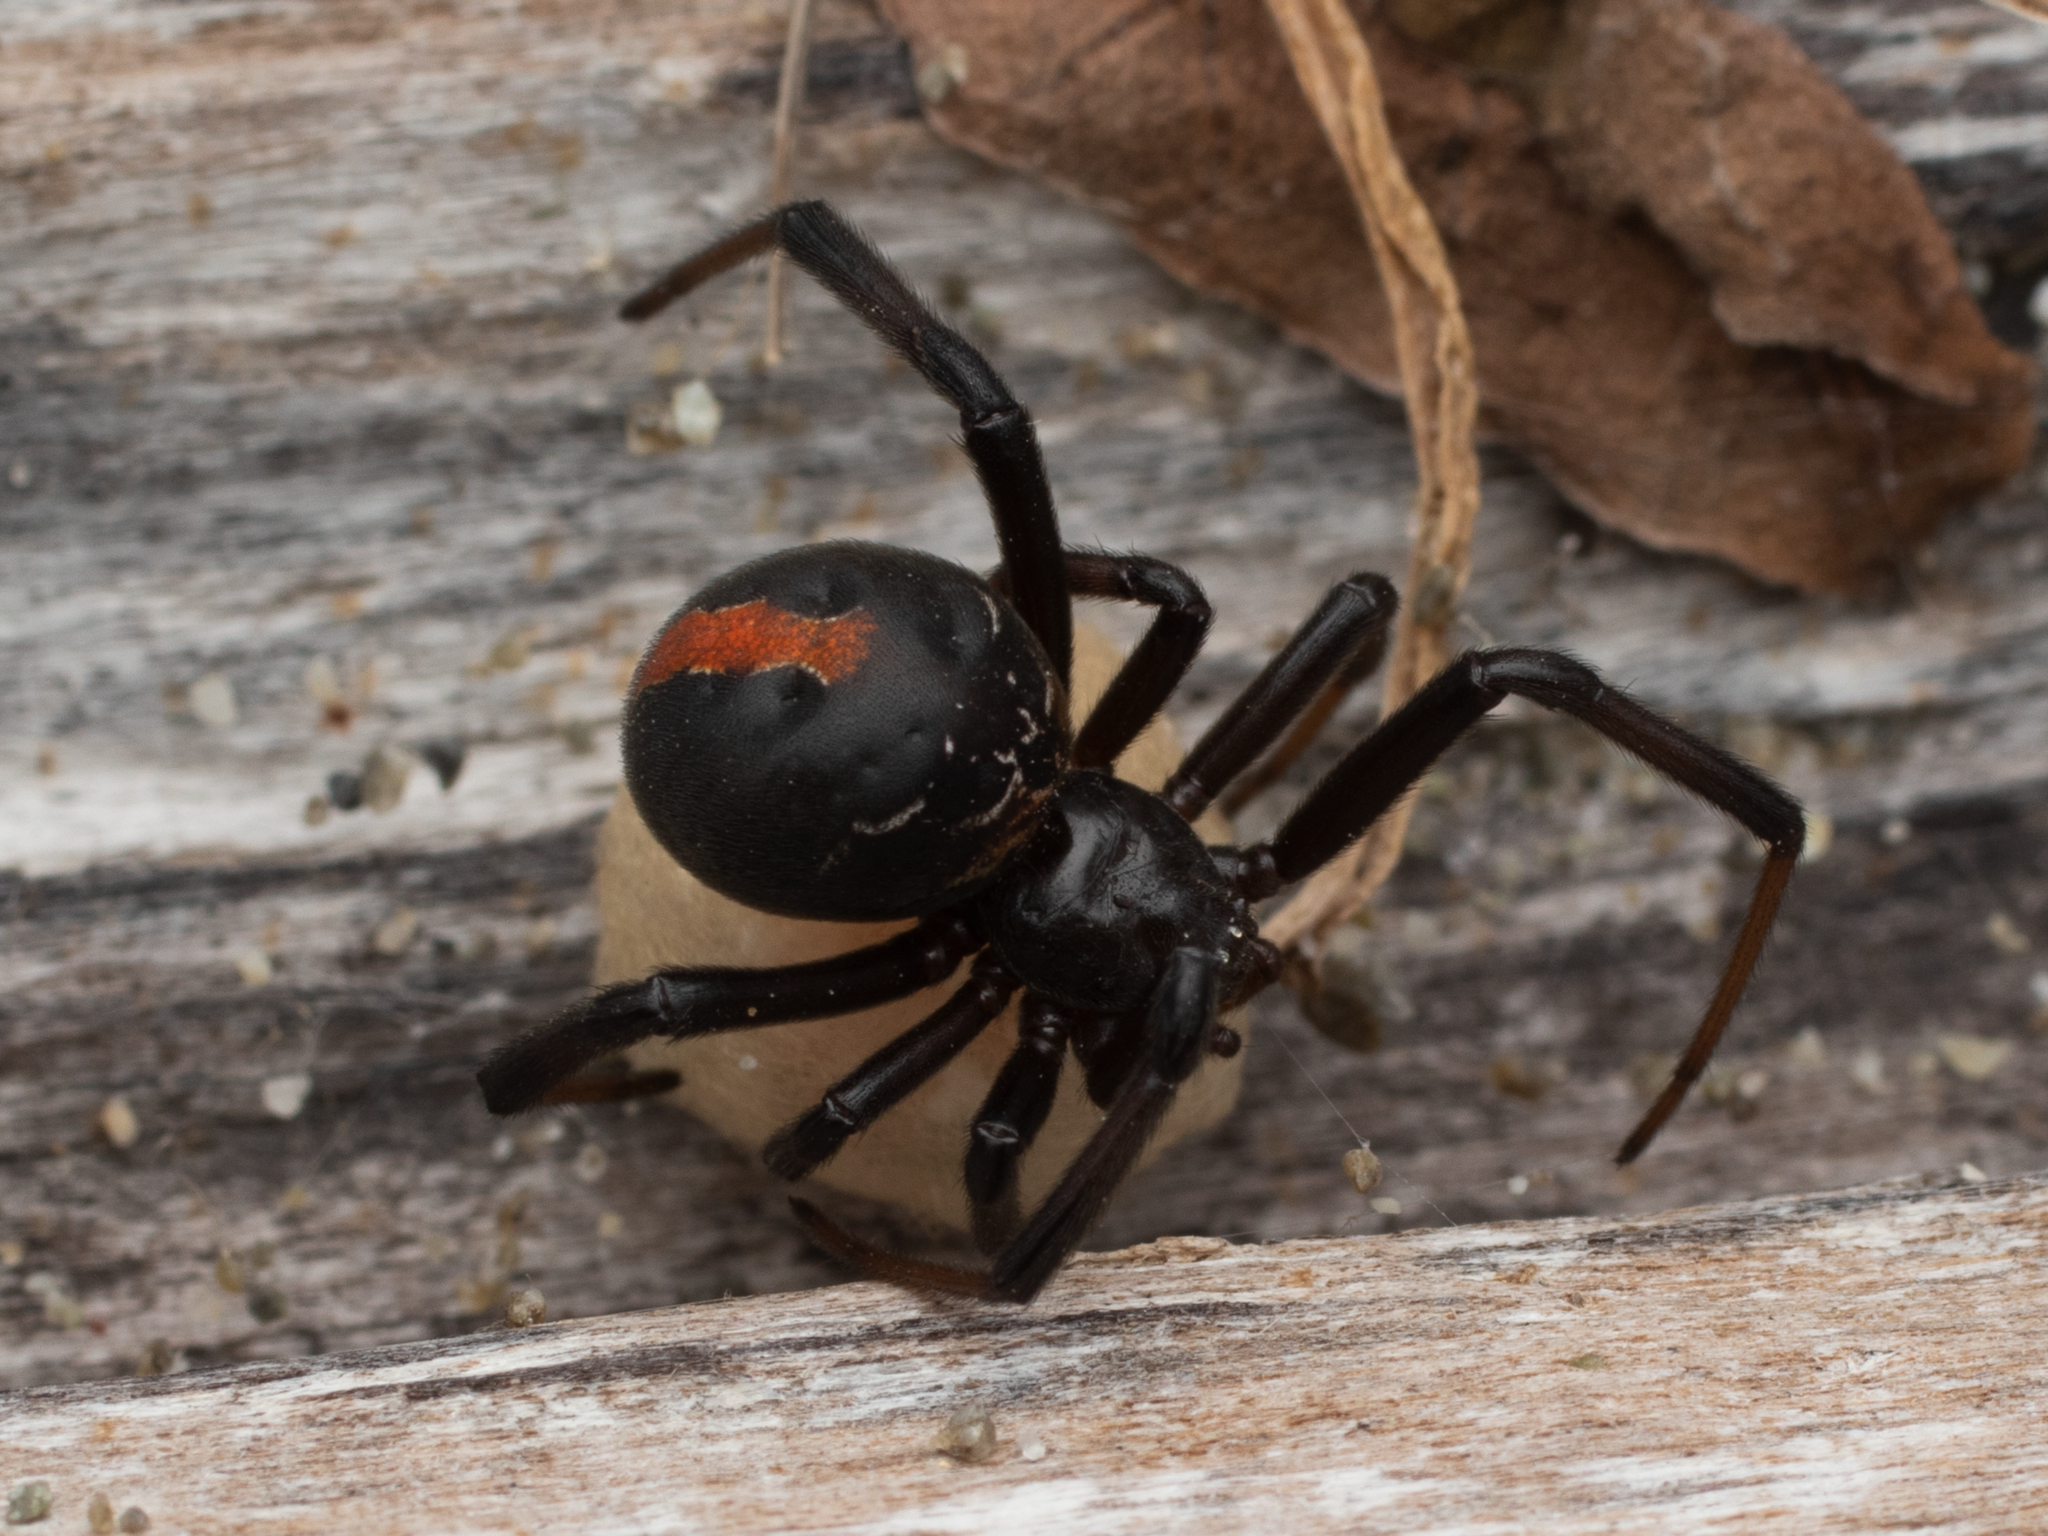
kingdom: Animalia
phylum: Arthropoda
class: Arachnida
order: Araneae
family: Theridiidae
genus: Latrodectus
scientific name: Latrodectus katipo
